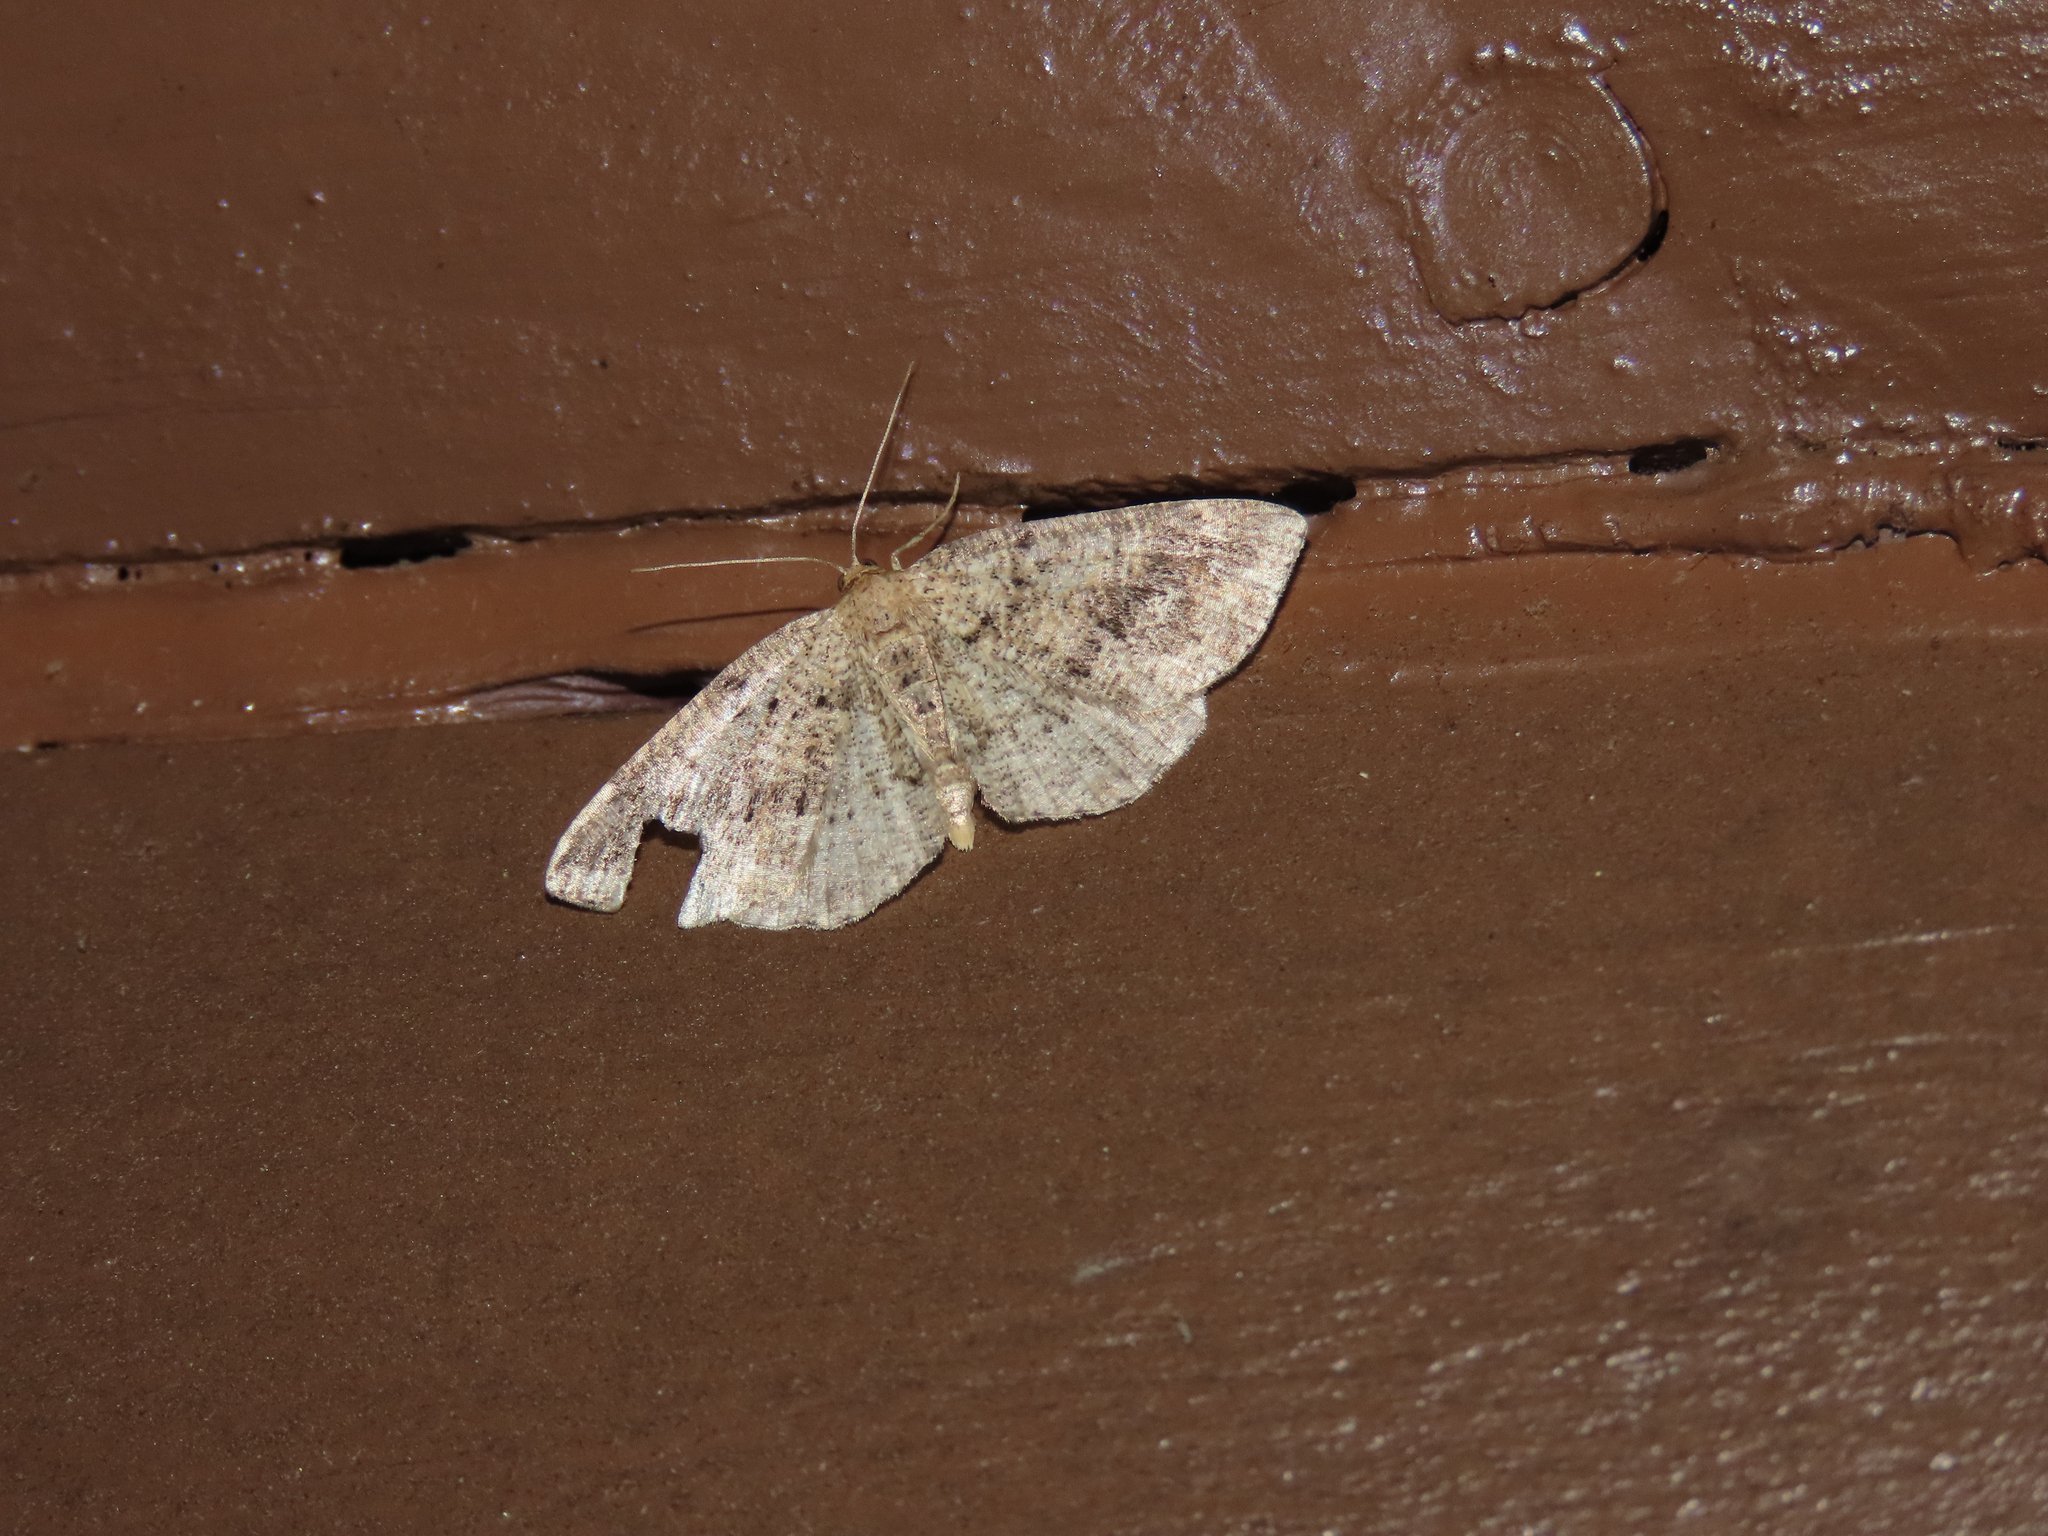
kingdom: Animalia
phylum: Arthropoda
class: Insecta
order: Lepidoptera
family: Geometridae
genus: Homochlodes
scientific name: Homochlodes fritillaria
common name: Pale homochlodes
